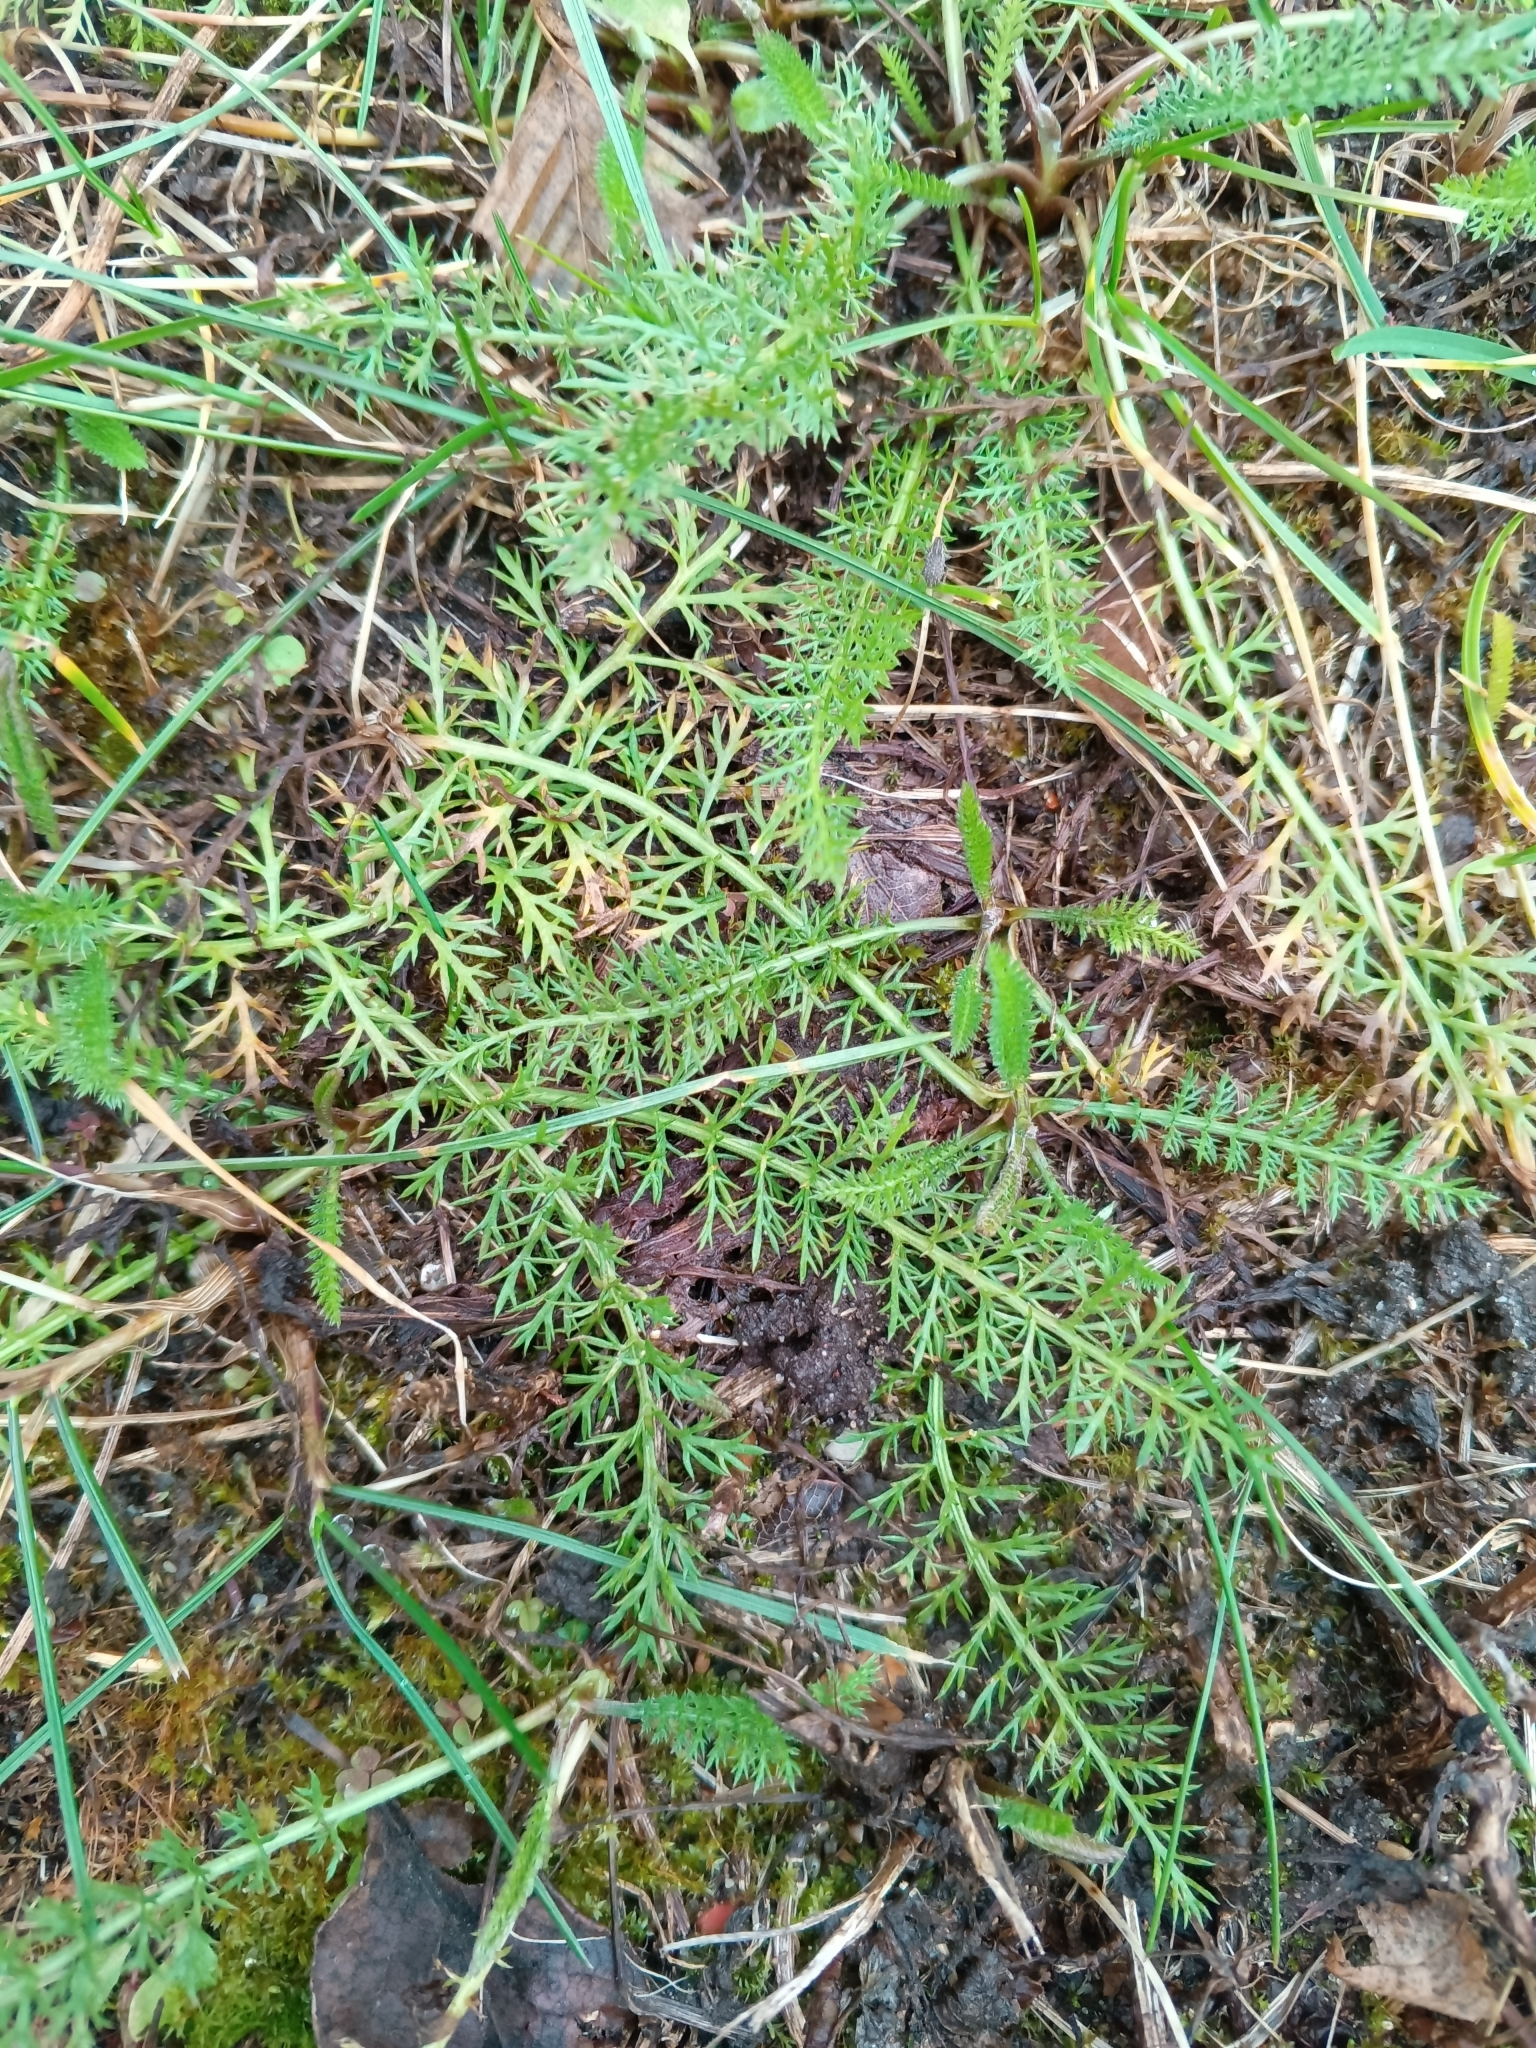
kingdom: Plantae
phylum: Tracheophyta
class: Magnoliopsida
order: Asterales
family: Asteraceae
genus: Achillea
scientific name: Achillea millefolium
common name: Yarrow
